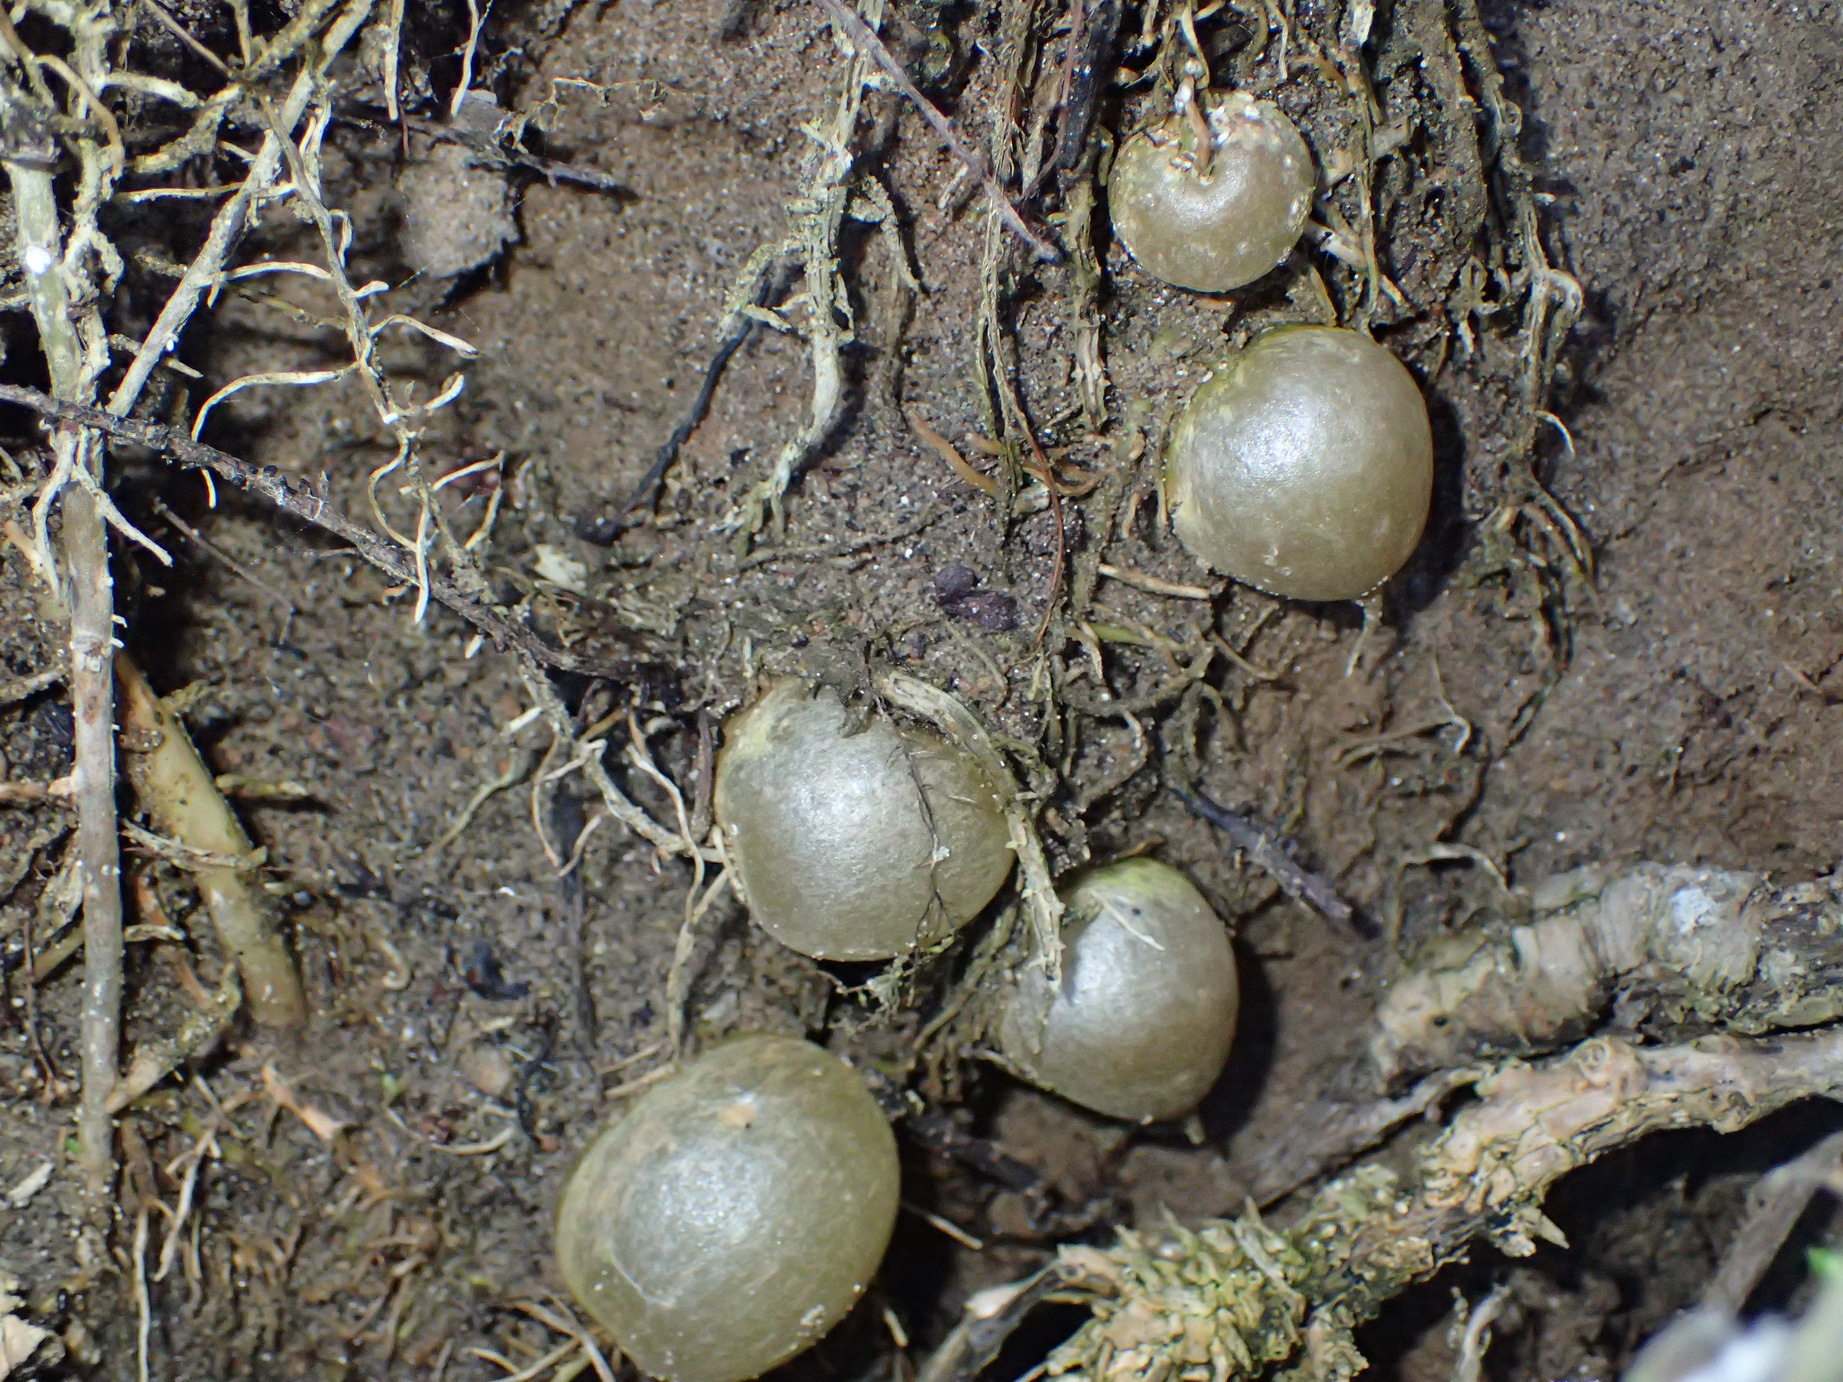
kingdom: Plantae
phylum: Tracheophyta
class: Liliopsida
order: Asparagales
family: Asparagaceae
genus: Asparagus
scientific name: Asparagus aethiopicus
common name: Sprenger's asparagus fern
